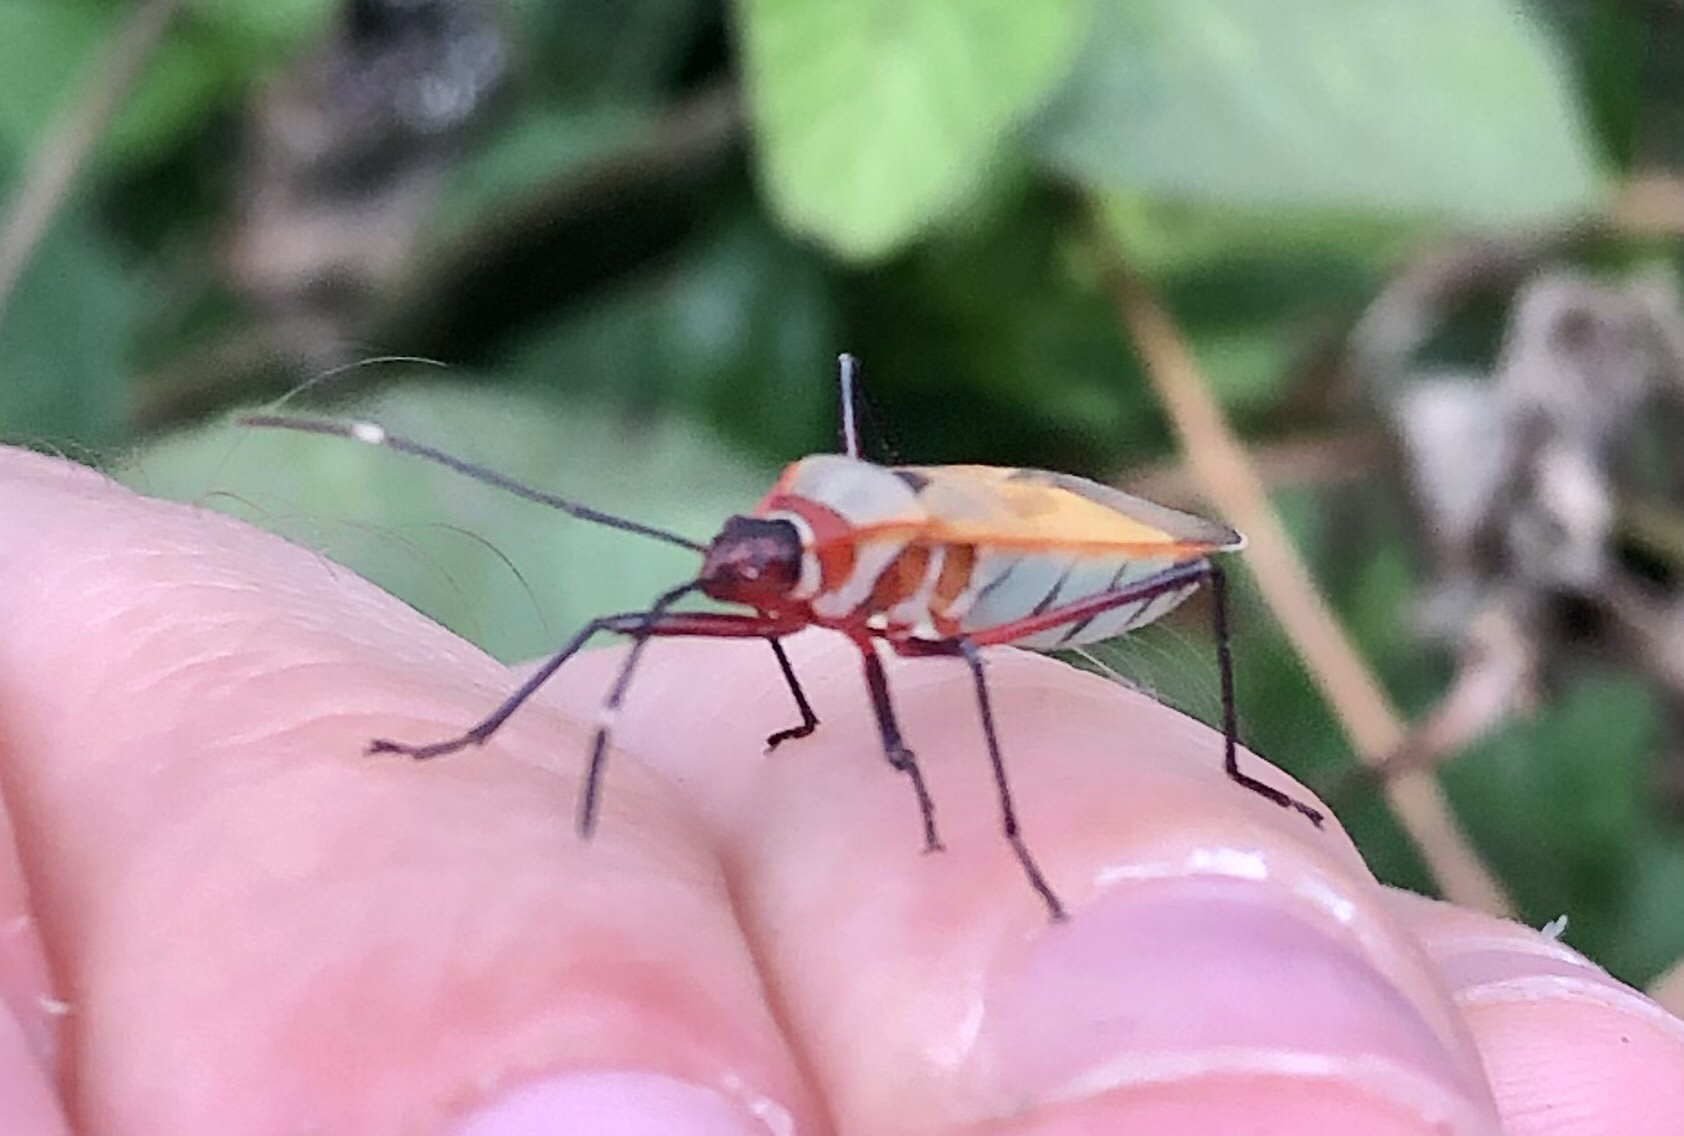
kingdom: Animalia
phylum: Arthropoda
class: Insecta
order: Hemiptera
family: Pyrrhocoridae
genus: Dysdercus
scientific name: Dysdercus
